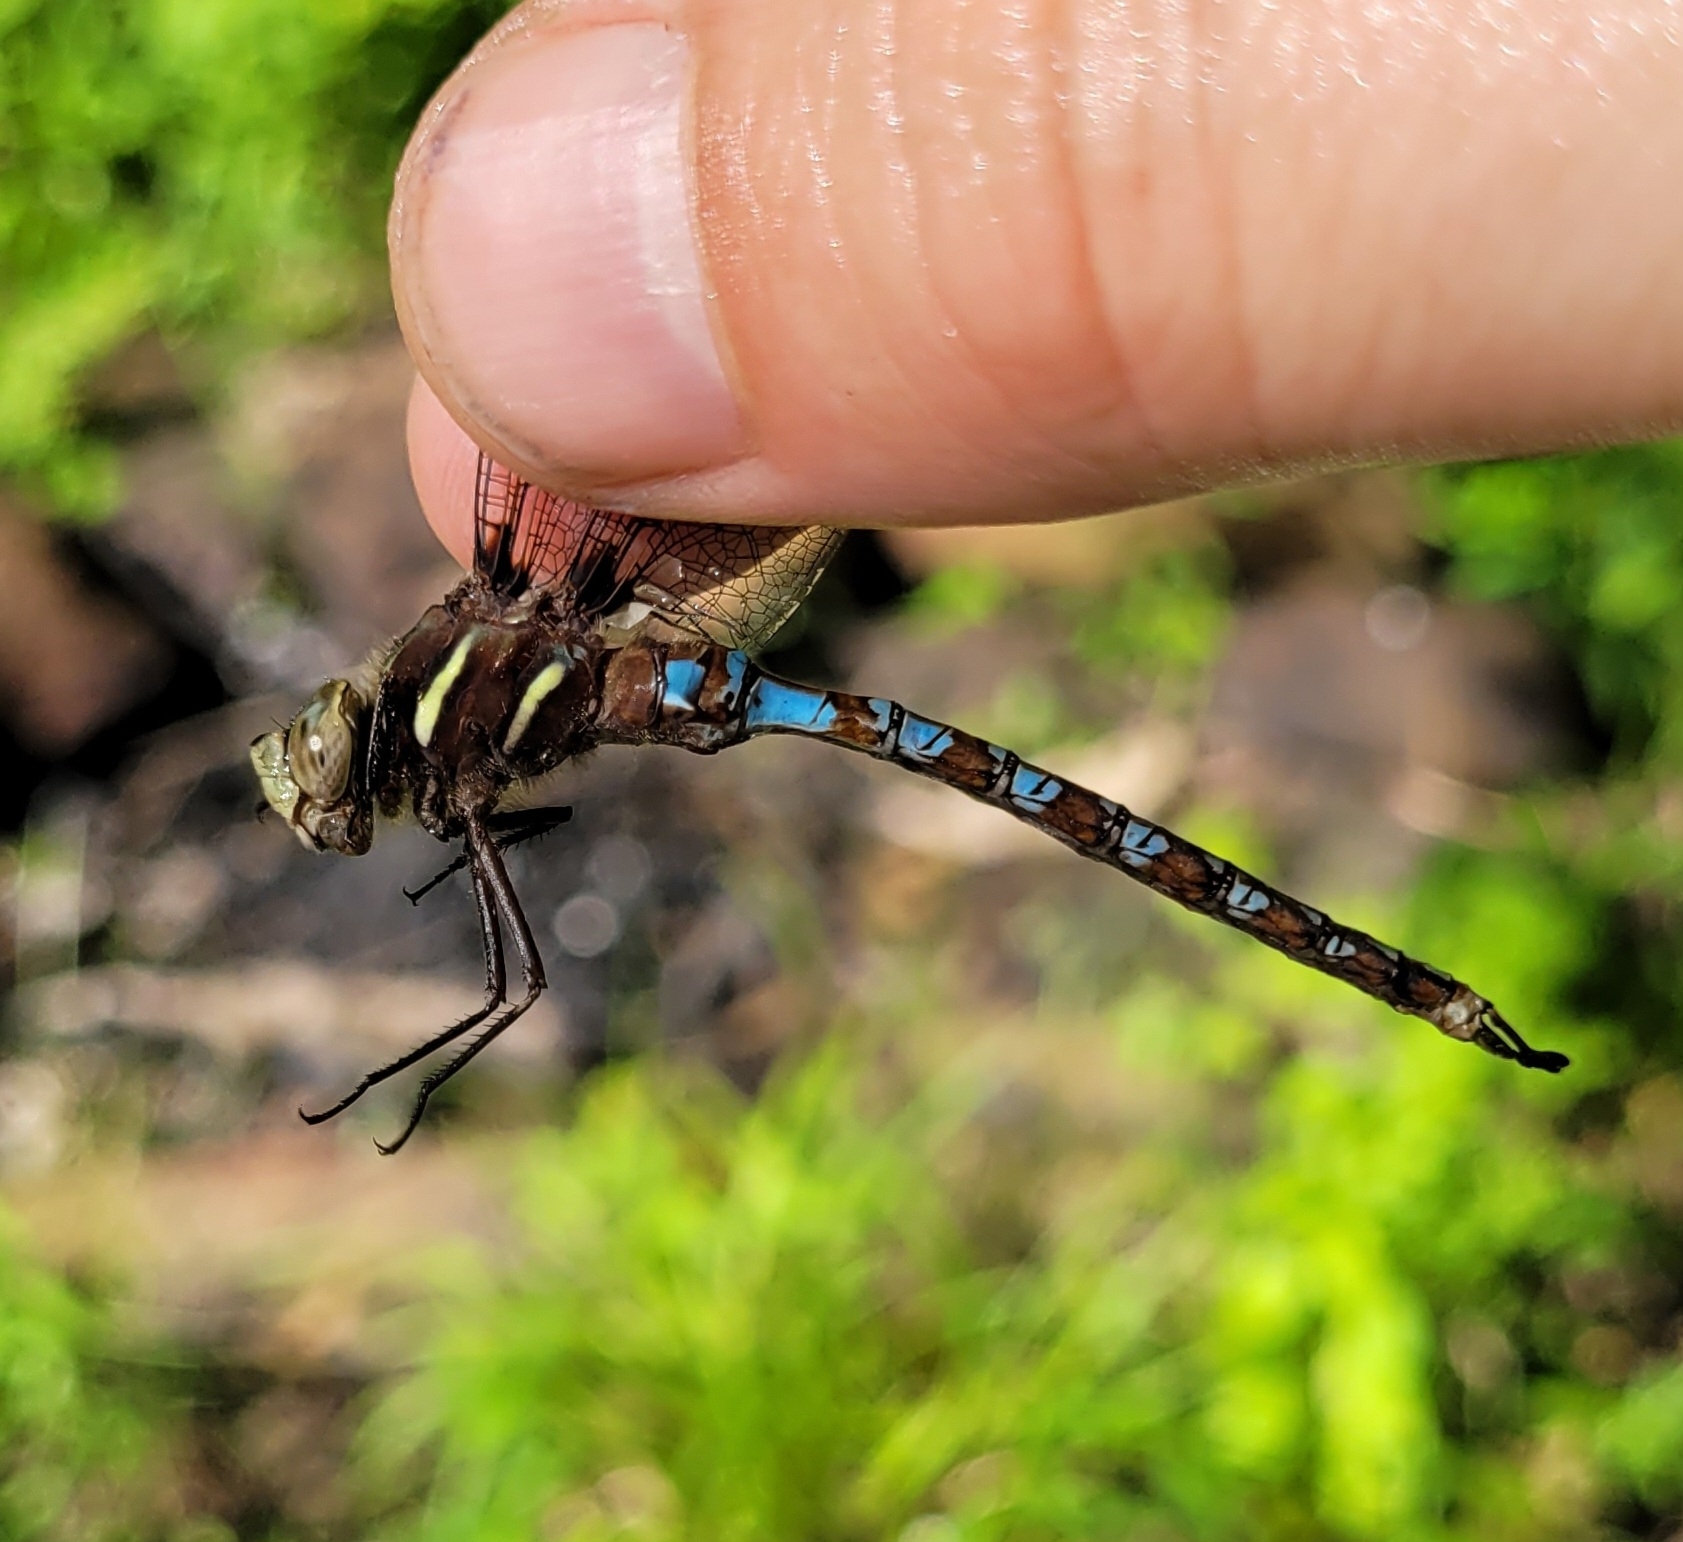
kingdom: Animalia
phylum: Arthropoda
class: Insecta
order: Odonata
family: Aeshnidae
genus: Basiaeschna
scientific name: Basiaeschna janata
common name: Springtime darner
